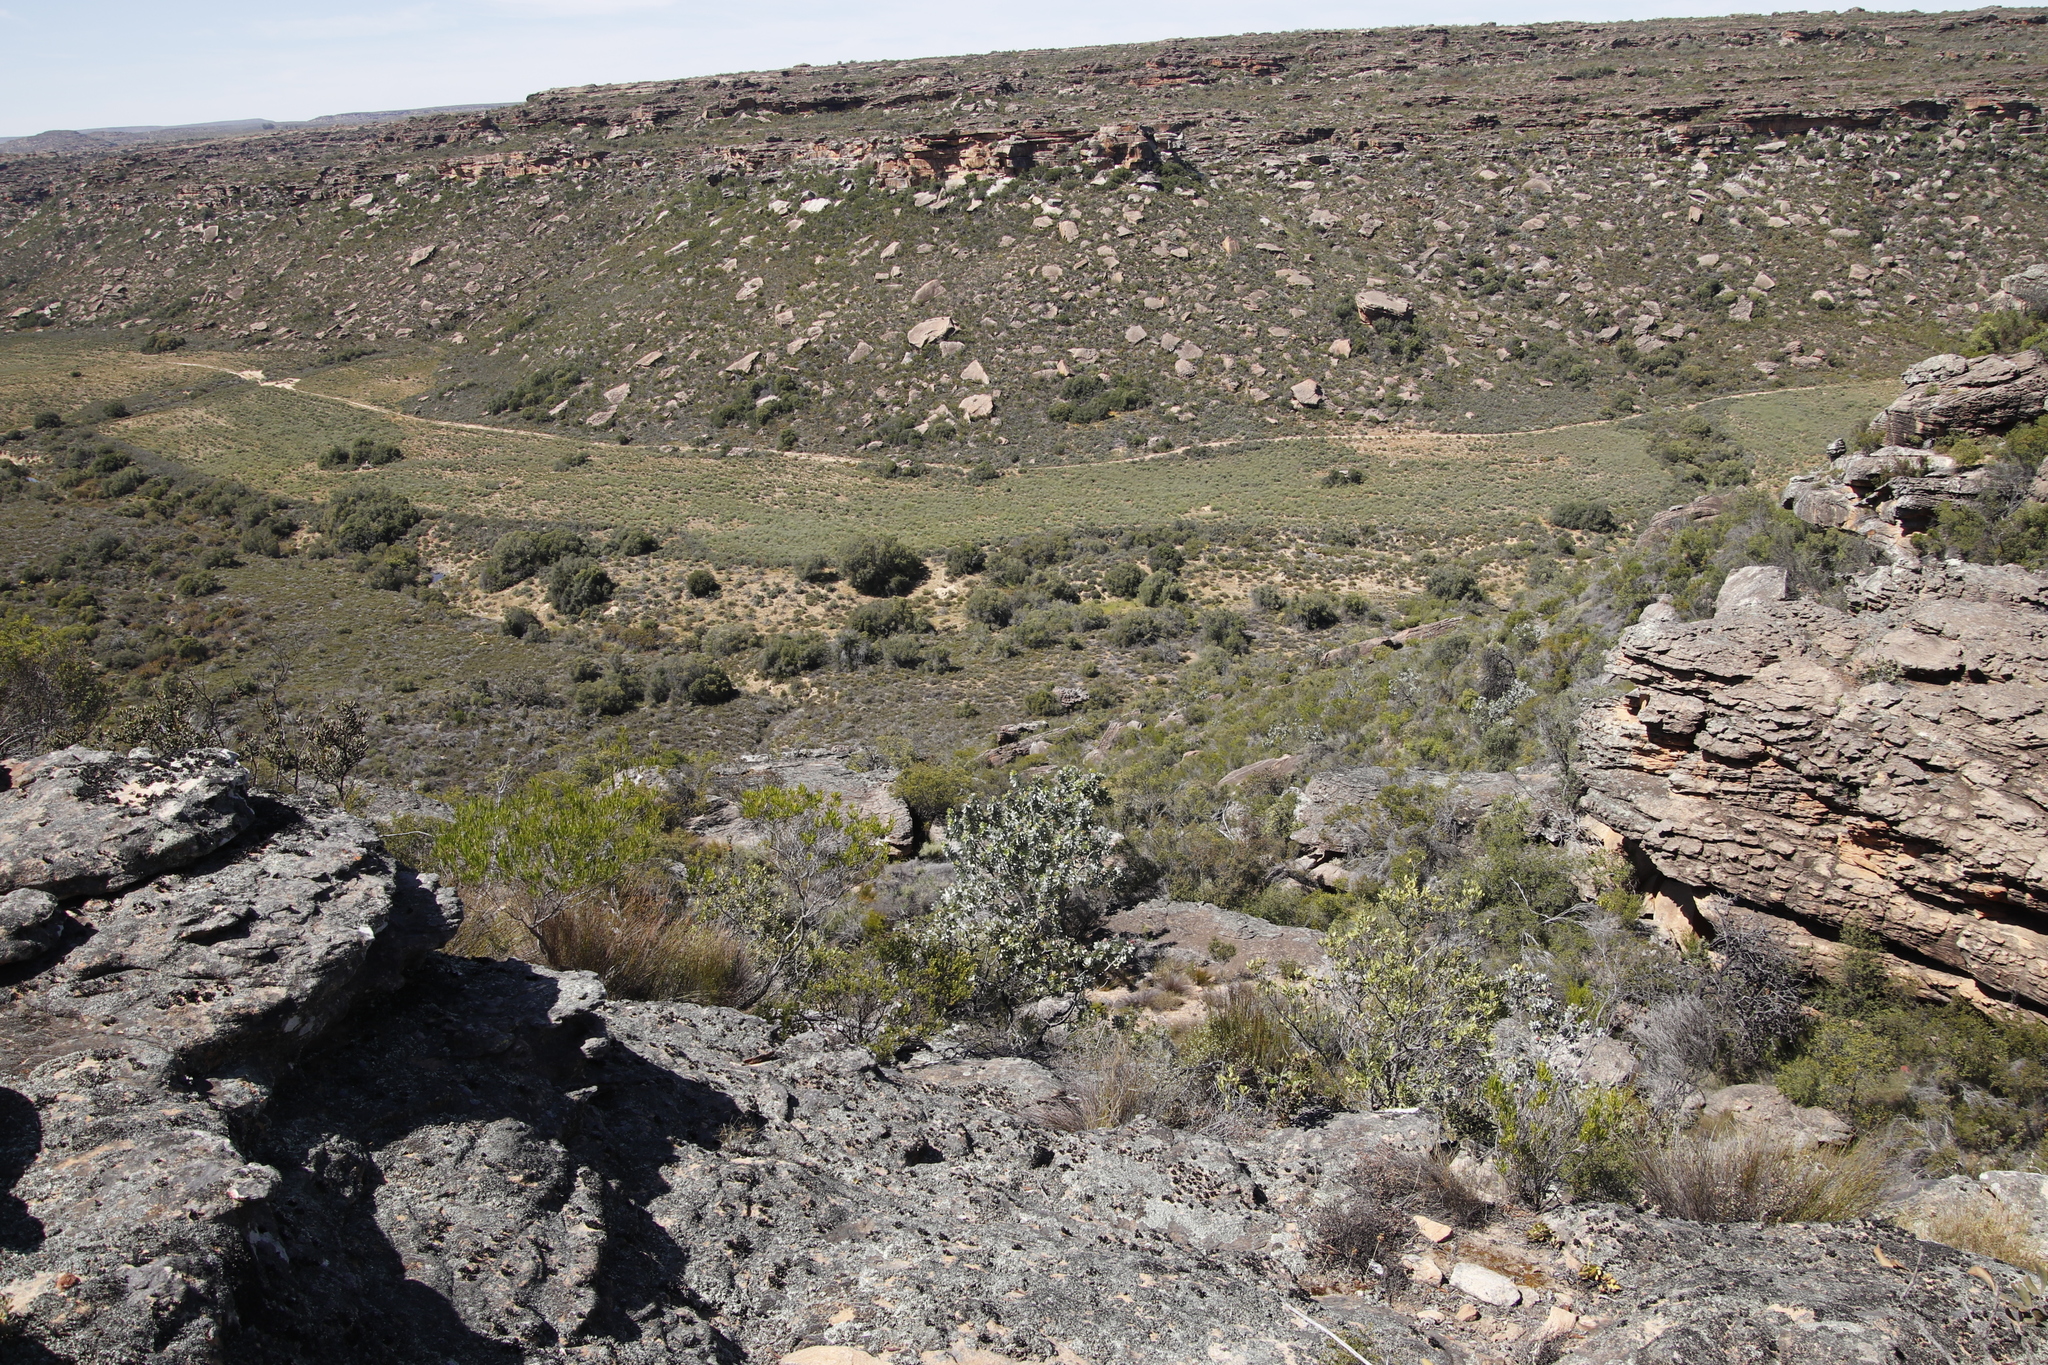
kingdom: Plantae
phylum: Tracheophyta
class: Magnoliopsida
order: Proteales
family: Proteaceae
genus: Protea
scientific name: Protea nitida
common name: Tree protea
